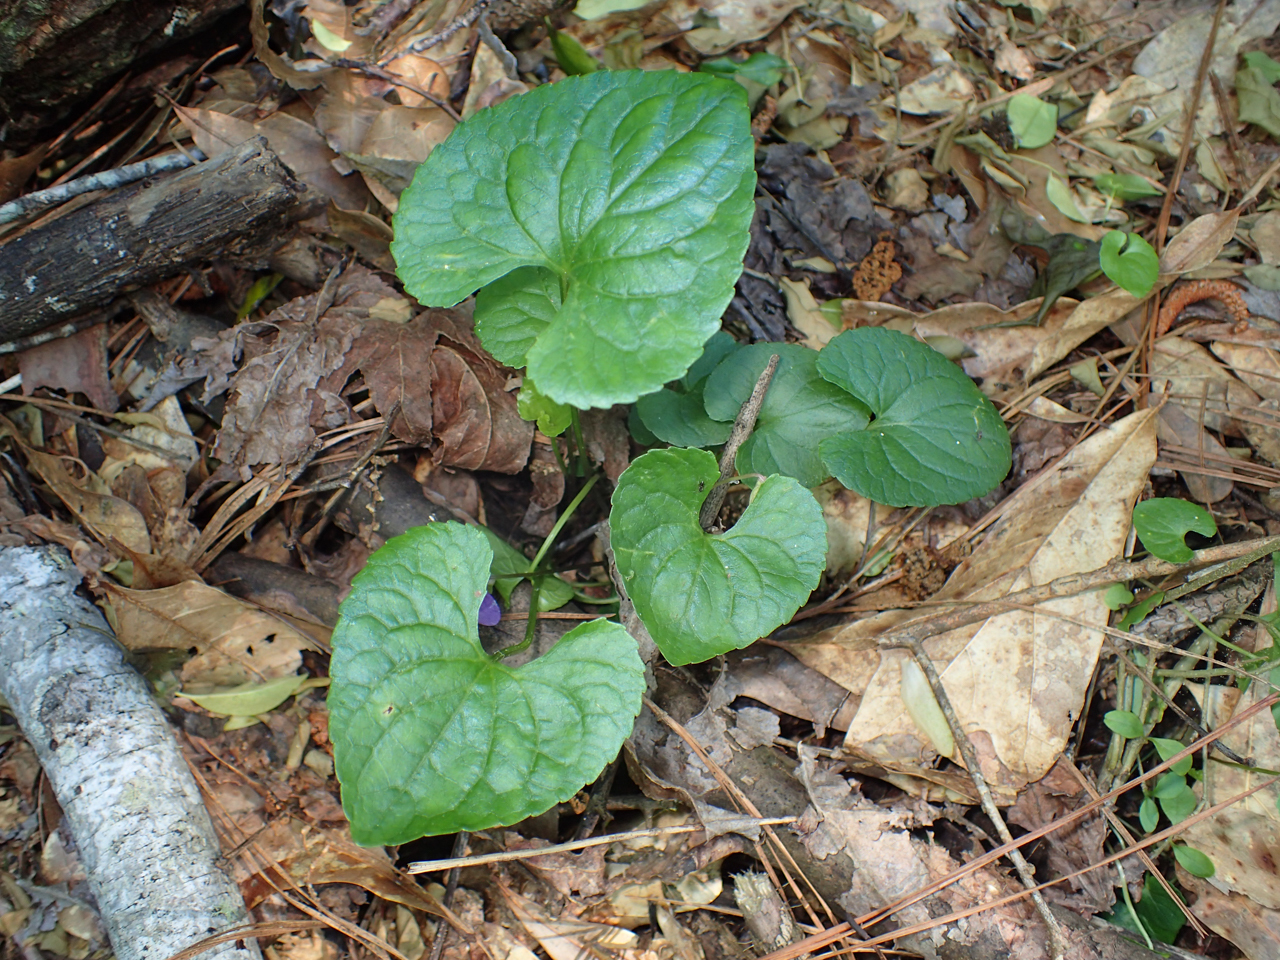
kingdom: Plantae
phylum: Tracheophyta
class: Magnoliopsida
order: Malpighiales
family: Violaceae
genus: Viola
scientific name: Viola sororia
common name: Dooryard violet
